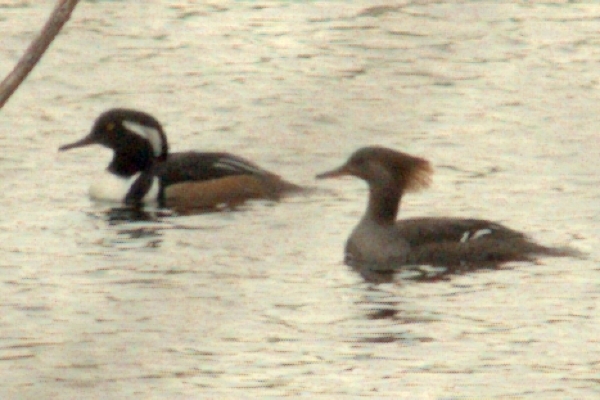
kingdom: Animalia
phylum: Chordata
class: Aves
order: Anseriformes
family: Anatidae
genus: Lophodytes
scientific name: Lophodytes cucullatus
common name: Hooded merganser
